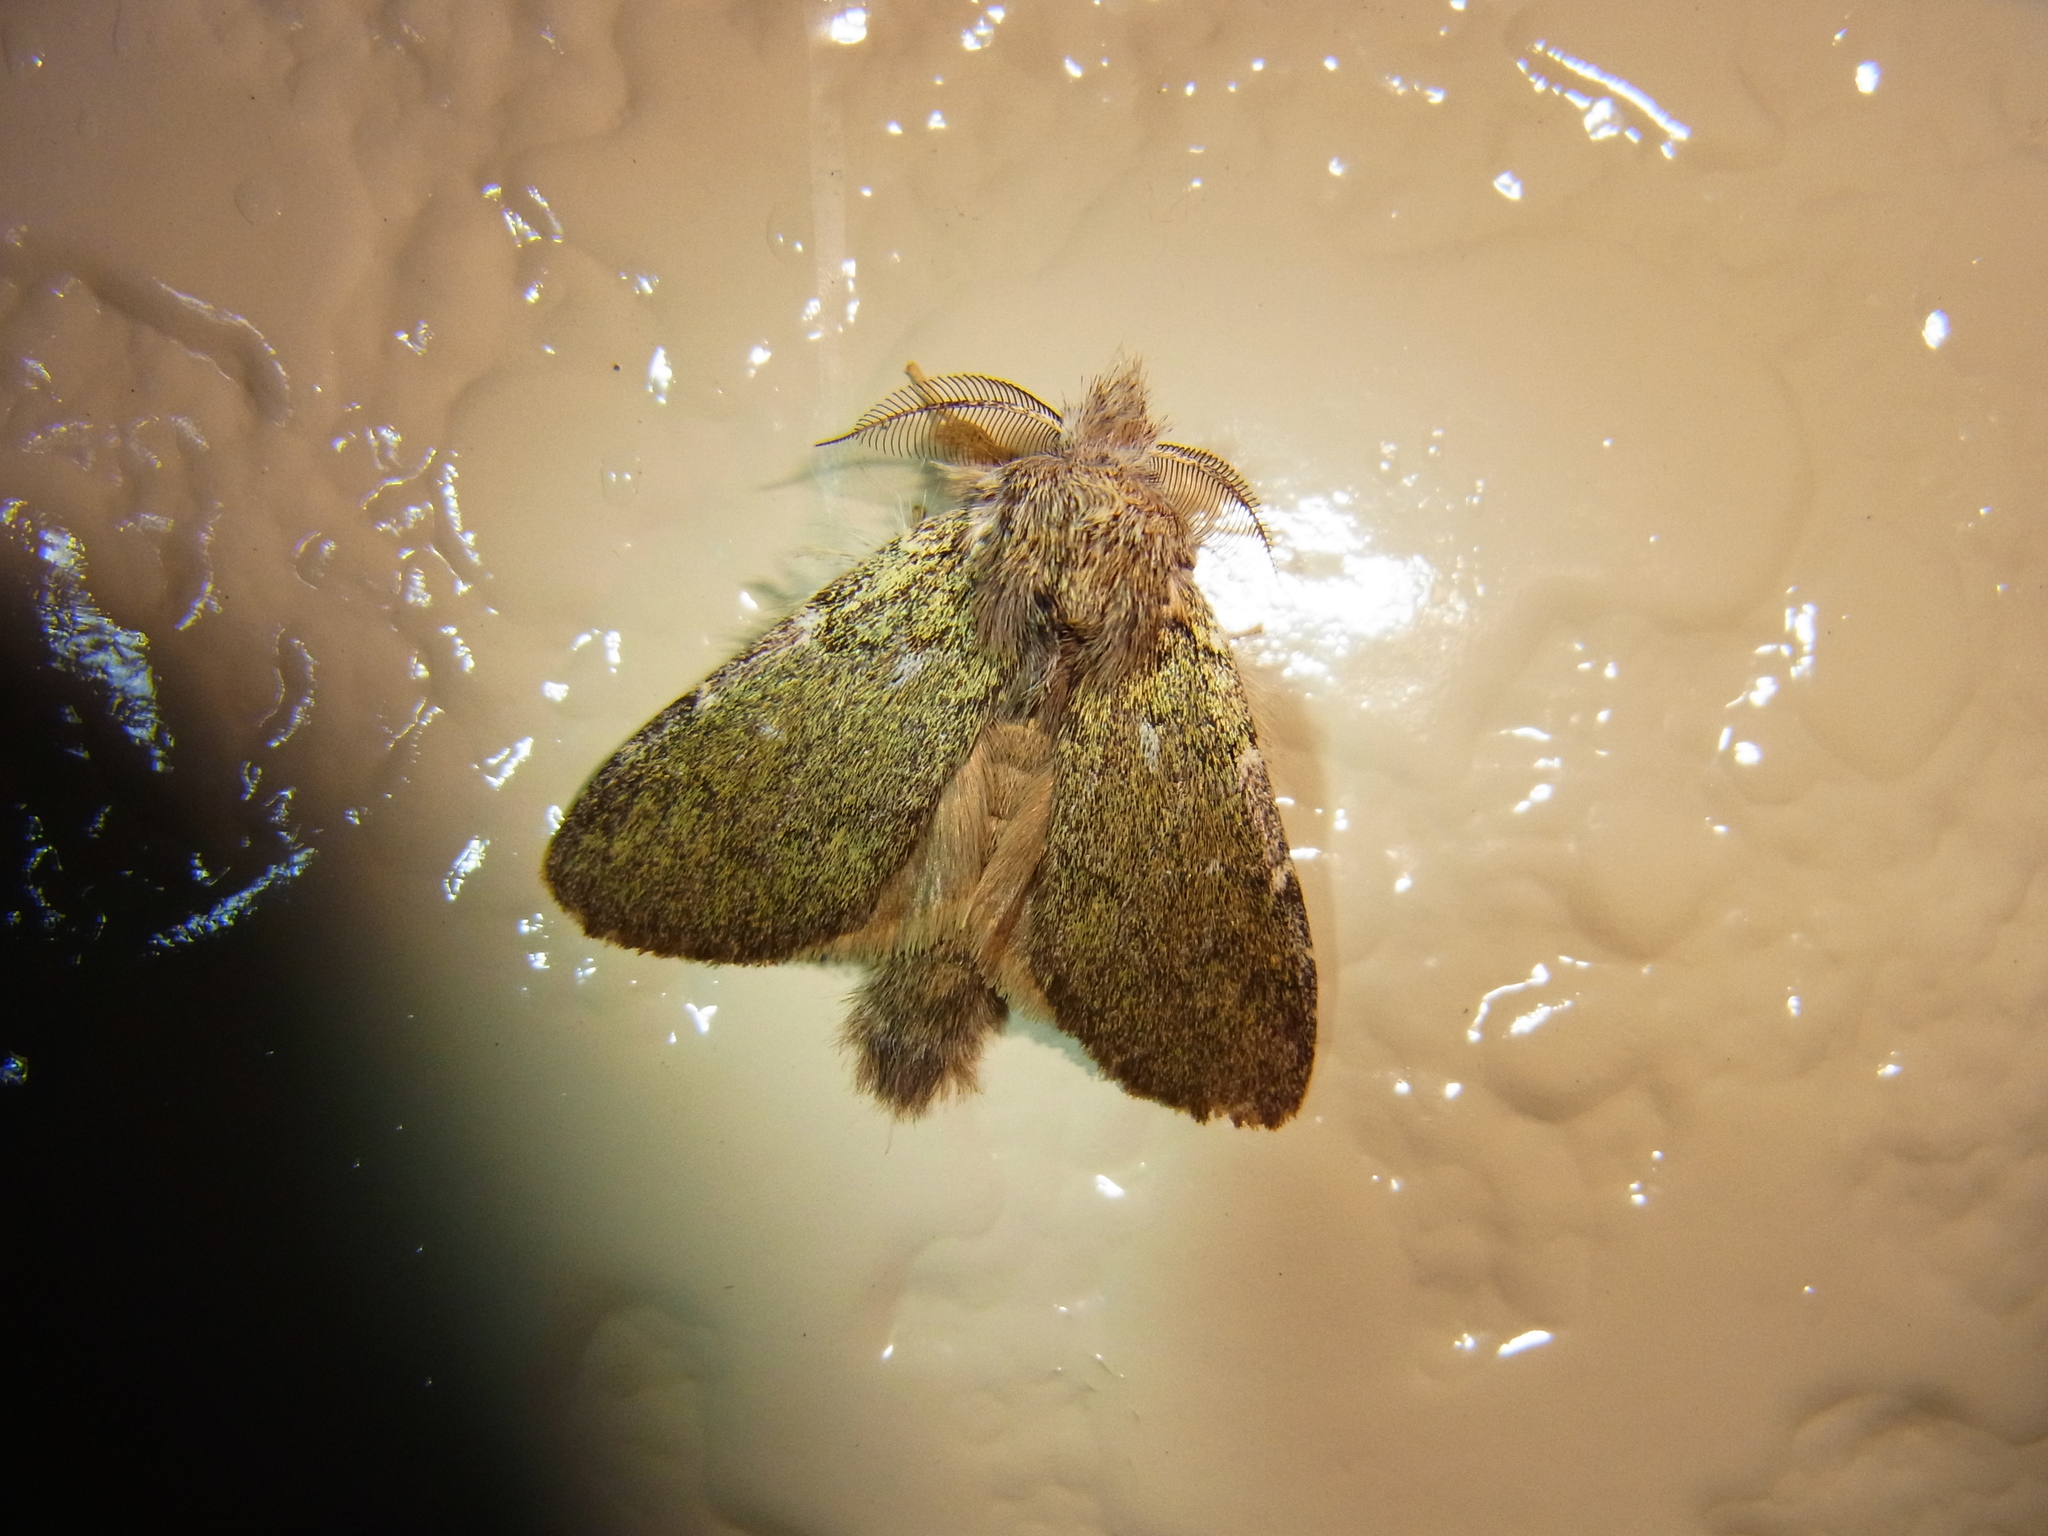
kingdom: Animalia
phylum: Arthropoda
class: Insecta
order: Lepidoptera
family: Notodontidae
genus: Syntypistis
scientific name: Syntypistis
